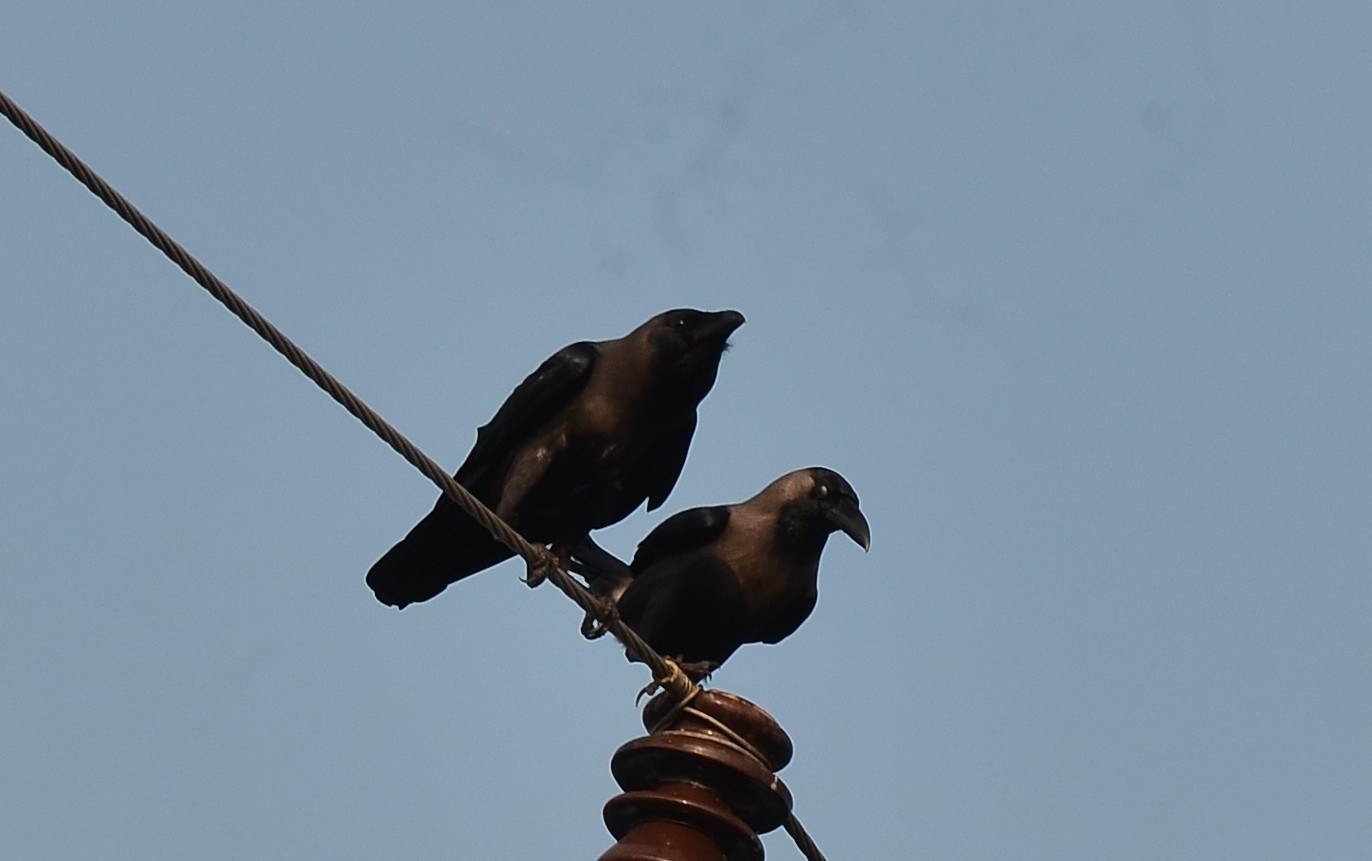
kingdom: Animalia
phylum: Chordata
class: Aves
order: Passeriformes
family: Corvidae
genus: Corvus
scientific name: Corvus splendens
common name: House crow
